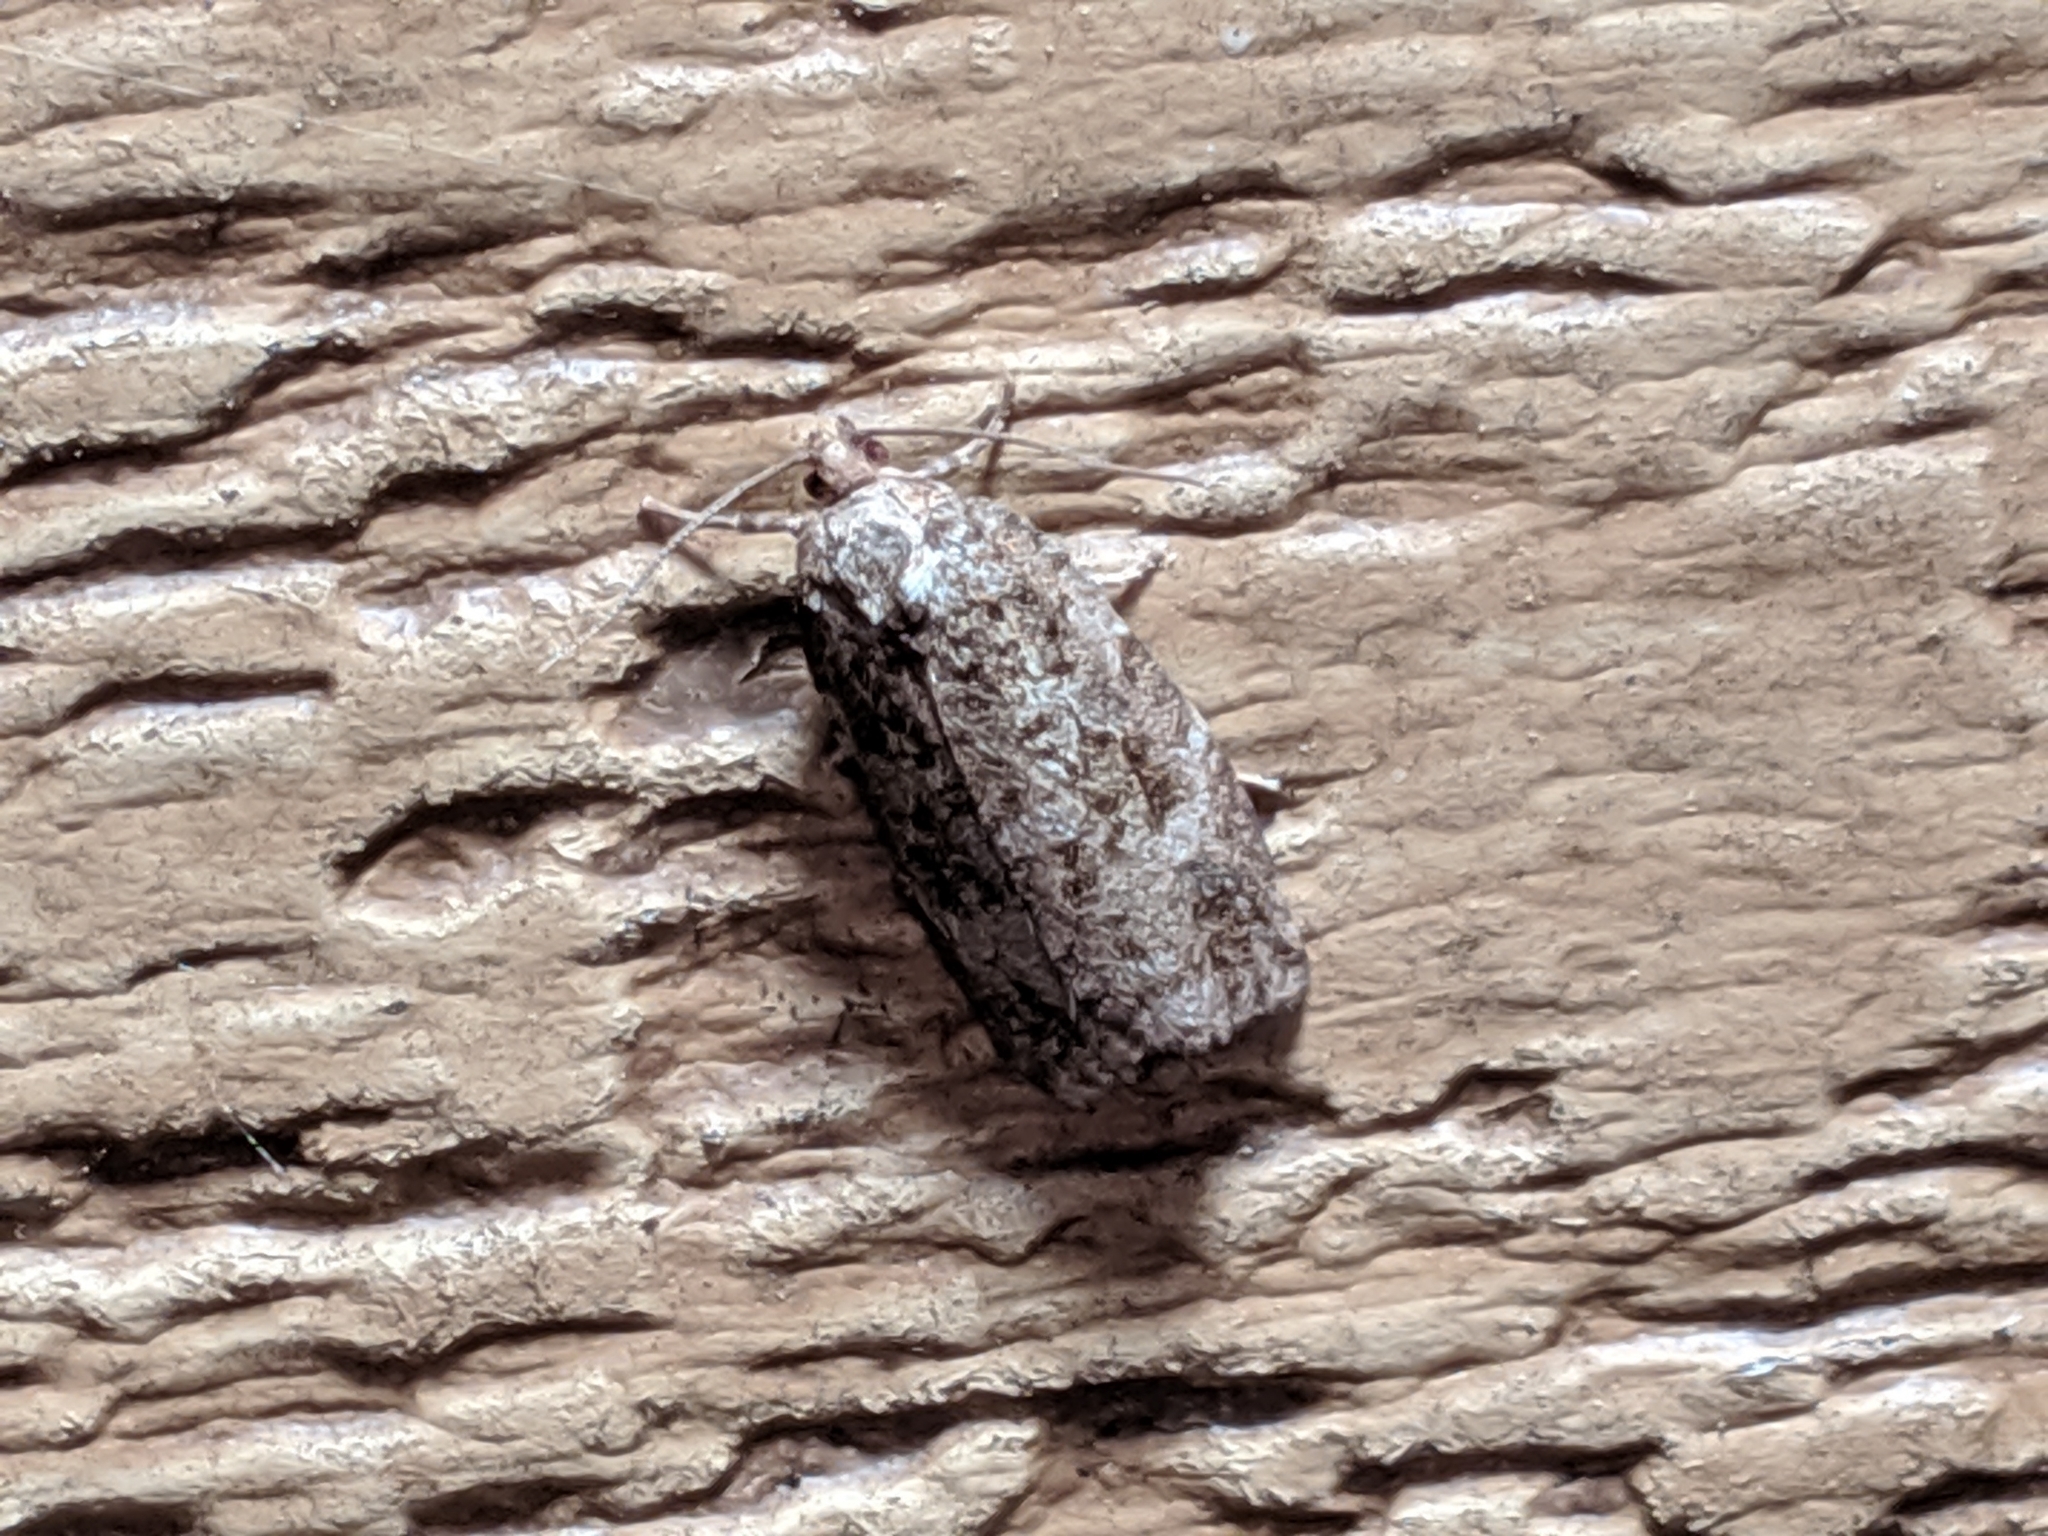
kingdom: Animalia
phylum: Arthropoda
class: Insecta
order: Lepidoptera
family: Tortricidae
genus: Choristoneura
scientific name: Choristoneura fumiferana
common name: Spruce budworm
